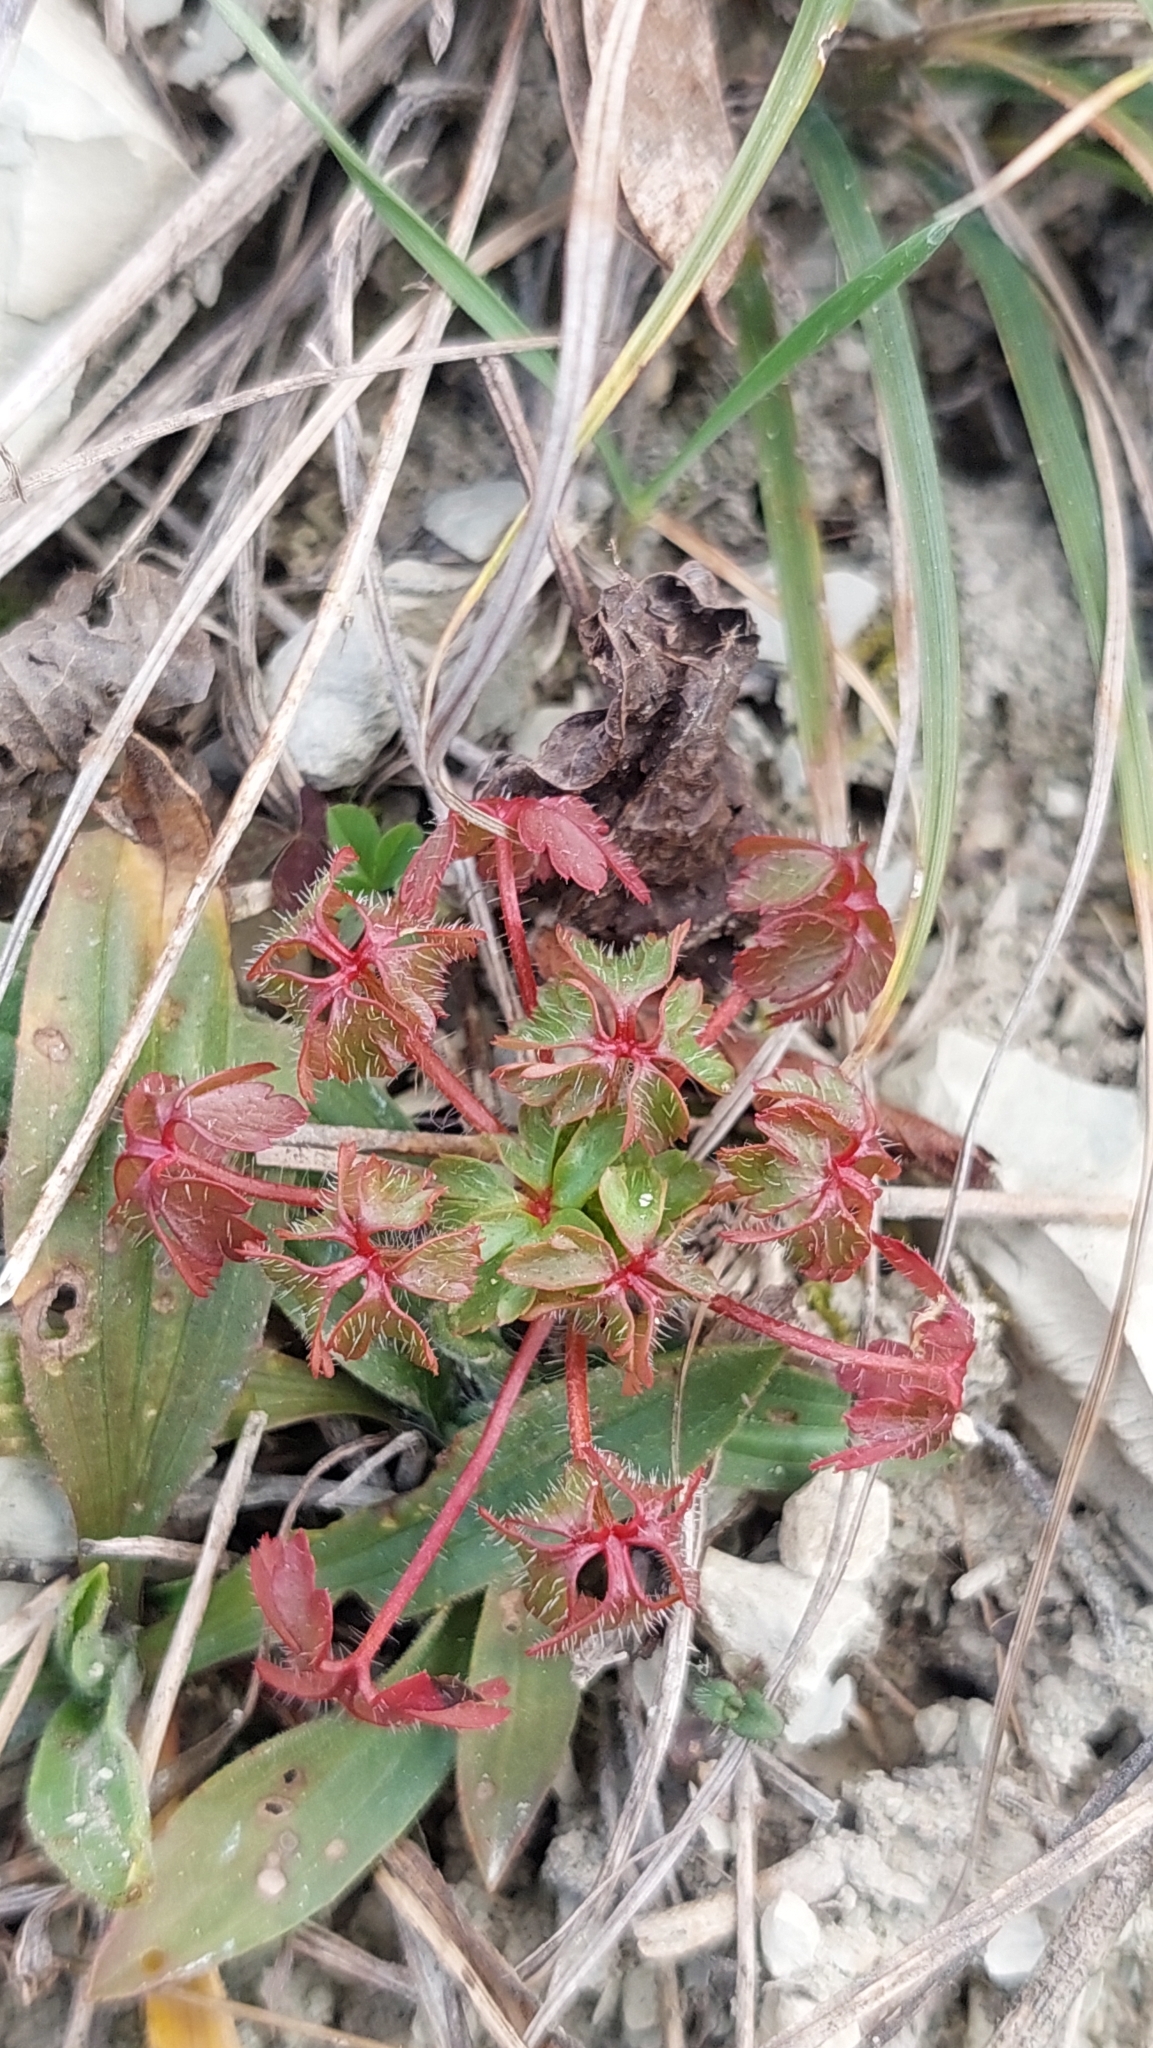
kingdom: Plantae
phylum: Tracheophyta
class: Magnoliopsida
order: Geraniales
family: Geraniaceae
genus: Geranium
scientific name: Geranium robertianum
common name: Herb-robert
